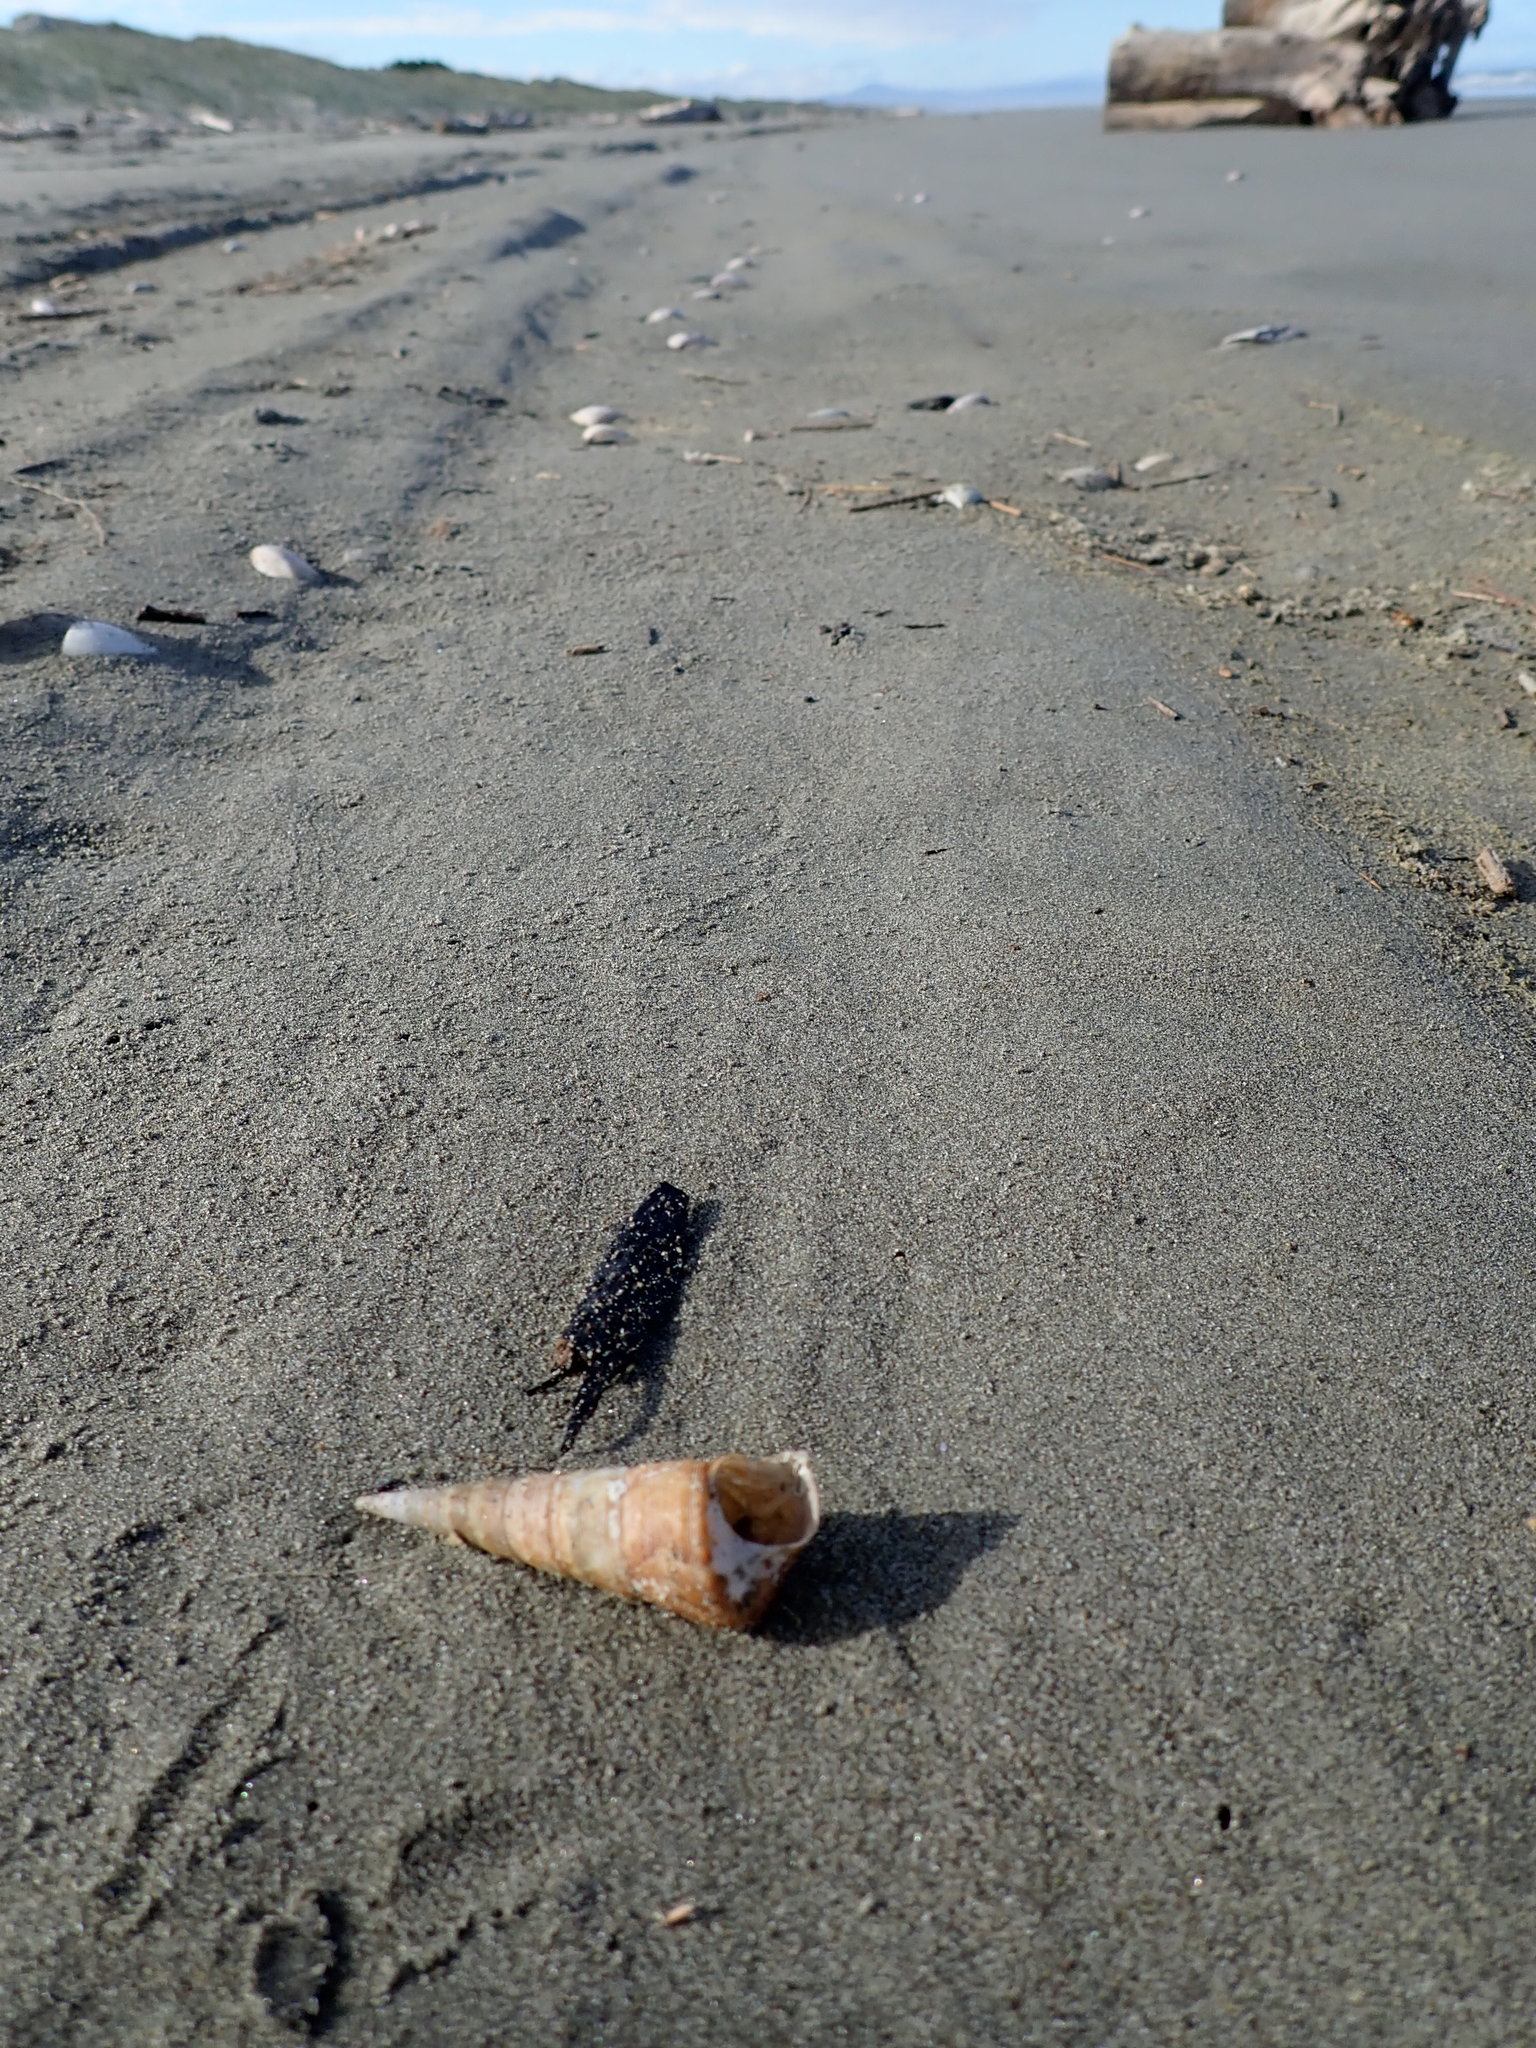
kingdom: Animalia
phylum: Mollusca
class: Gastropoda
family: Turritellidae
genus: Maoricolpus
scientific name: Maoricolpus roseus
